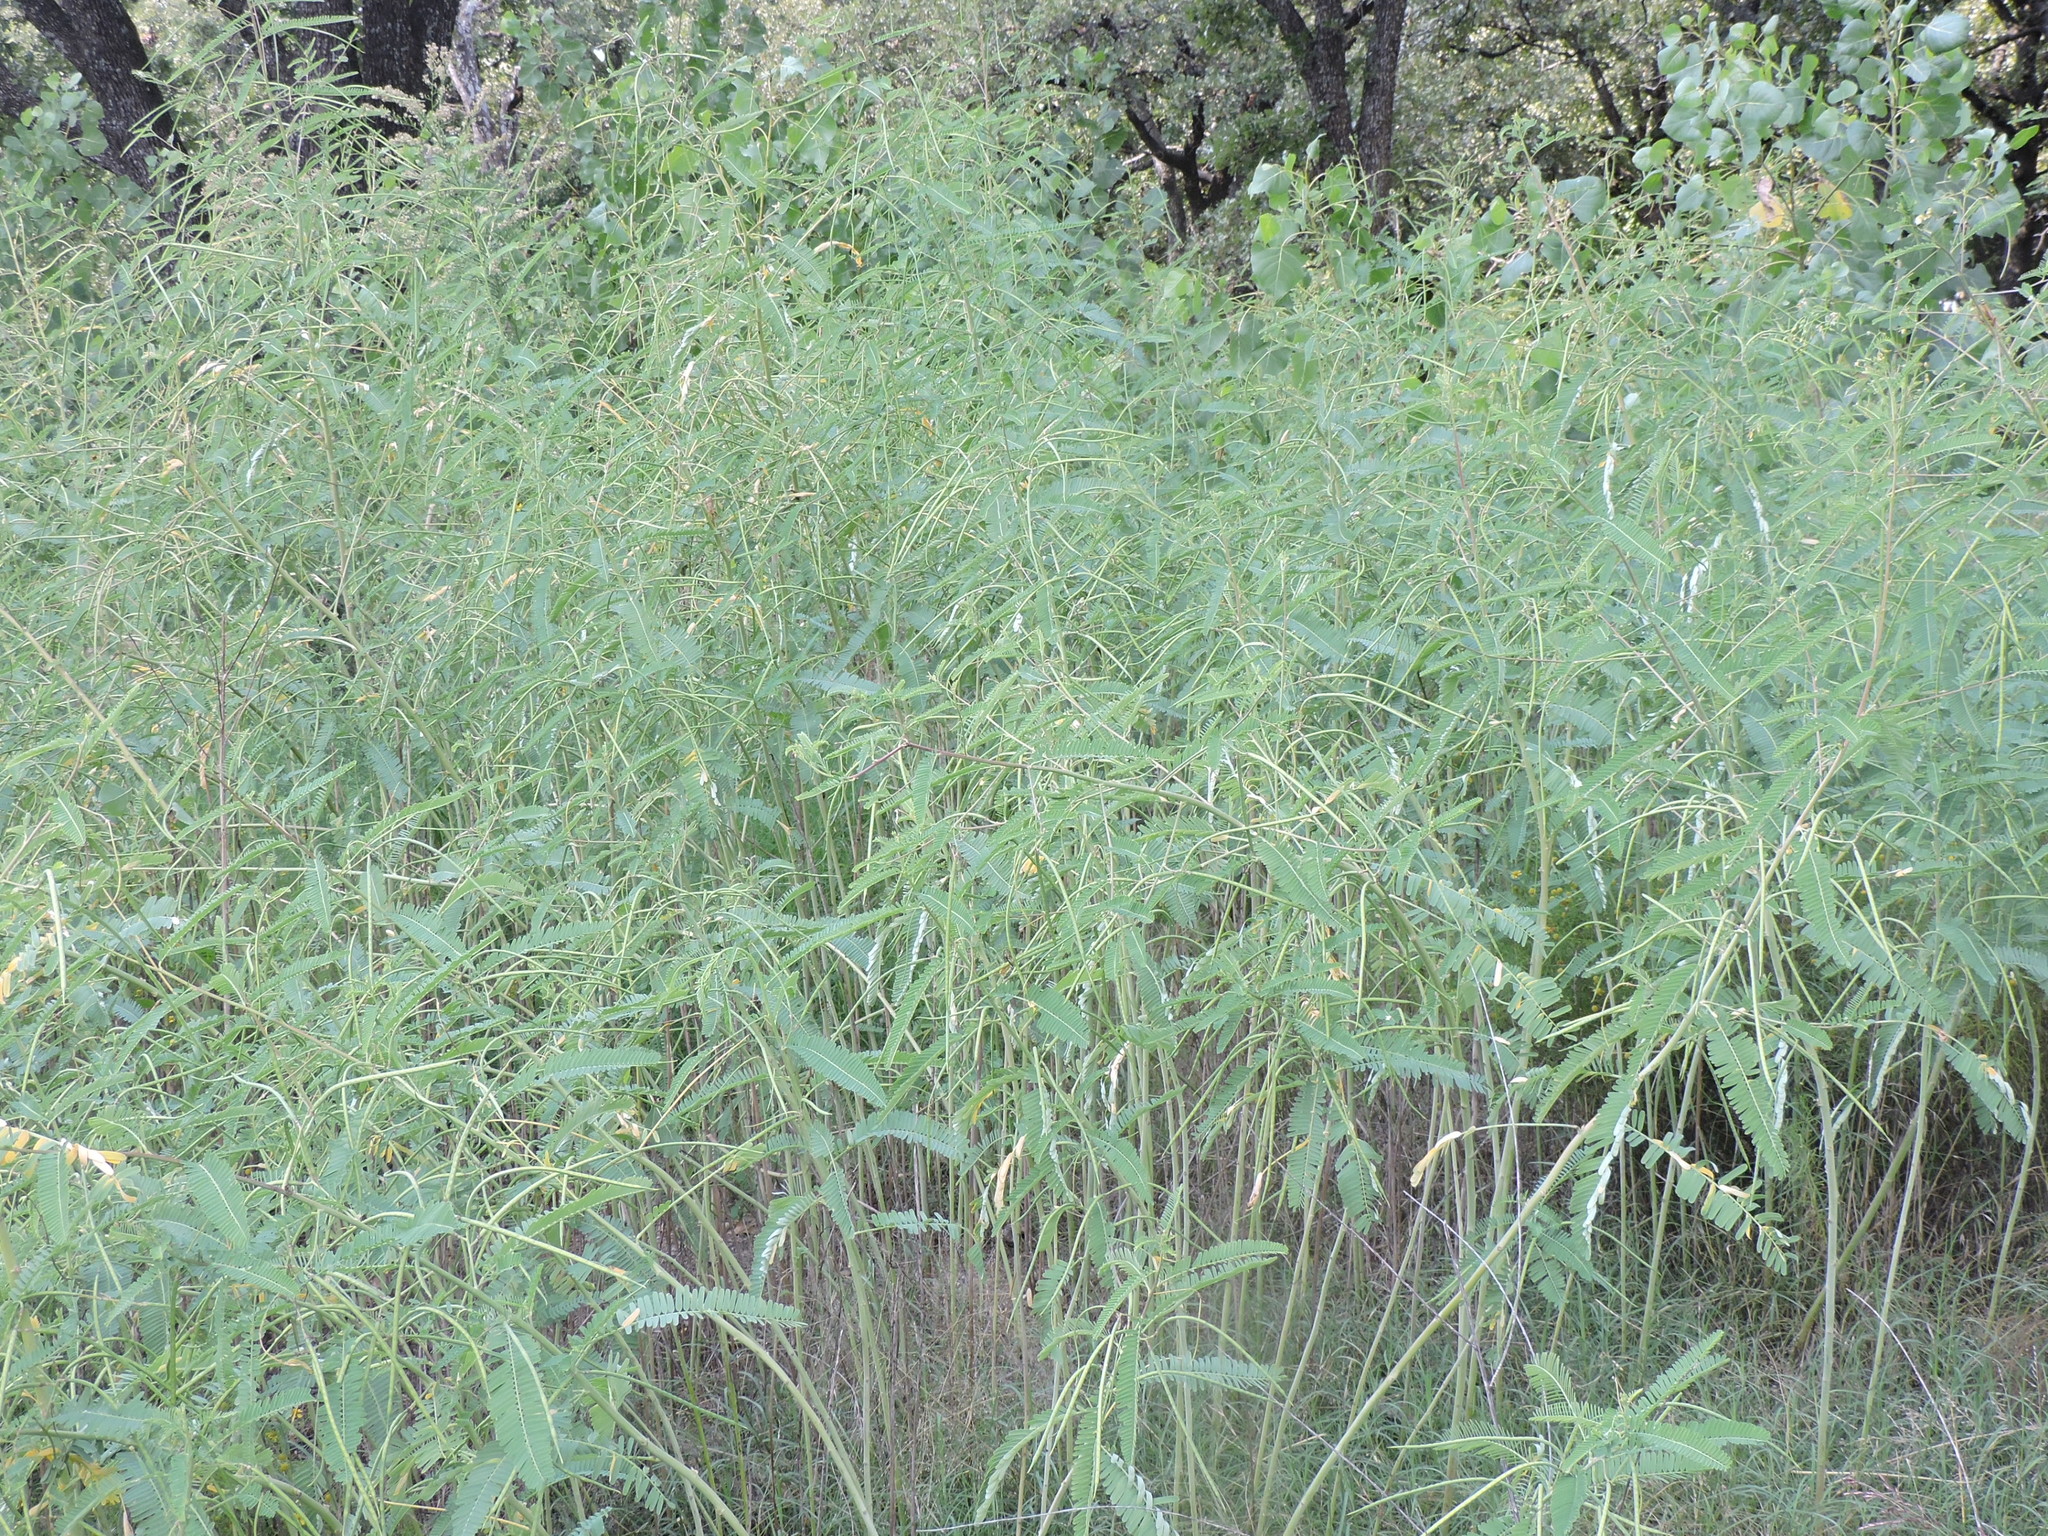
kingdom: Plantae
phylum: Tracheophyta
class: Magnoliopsida
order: Fabales
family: Fabaceae
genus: Sesbania
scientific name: Sesbania herbacea
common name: Bigpod sesbania
